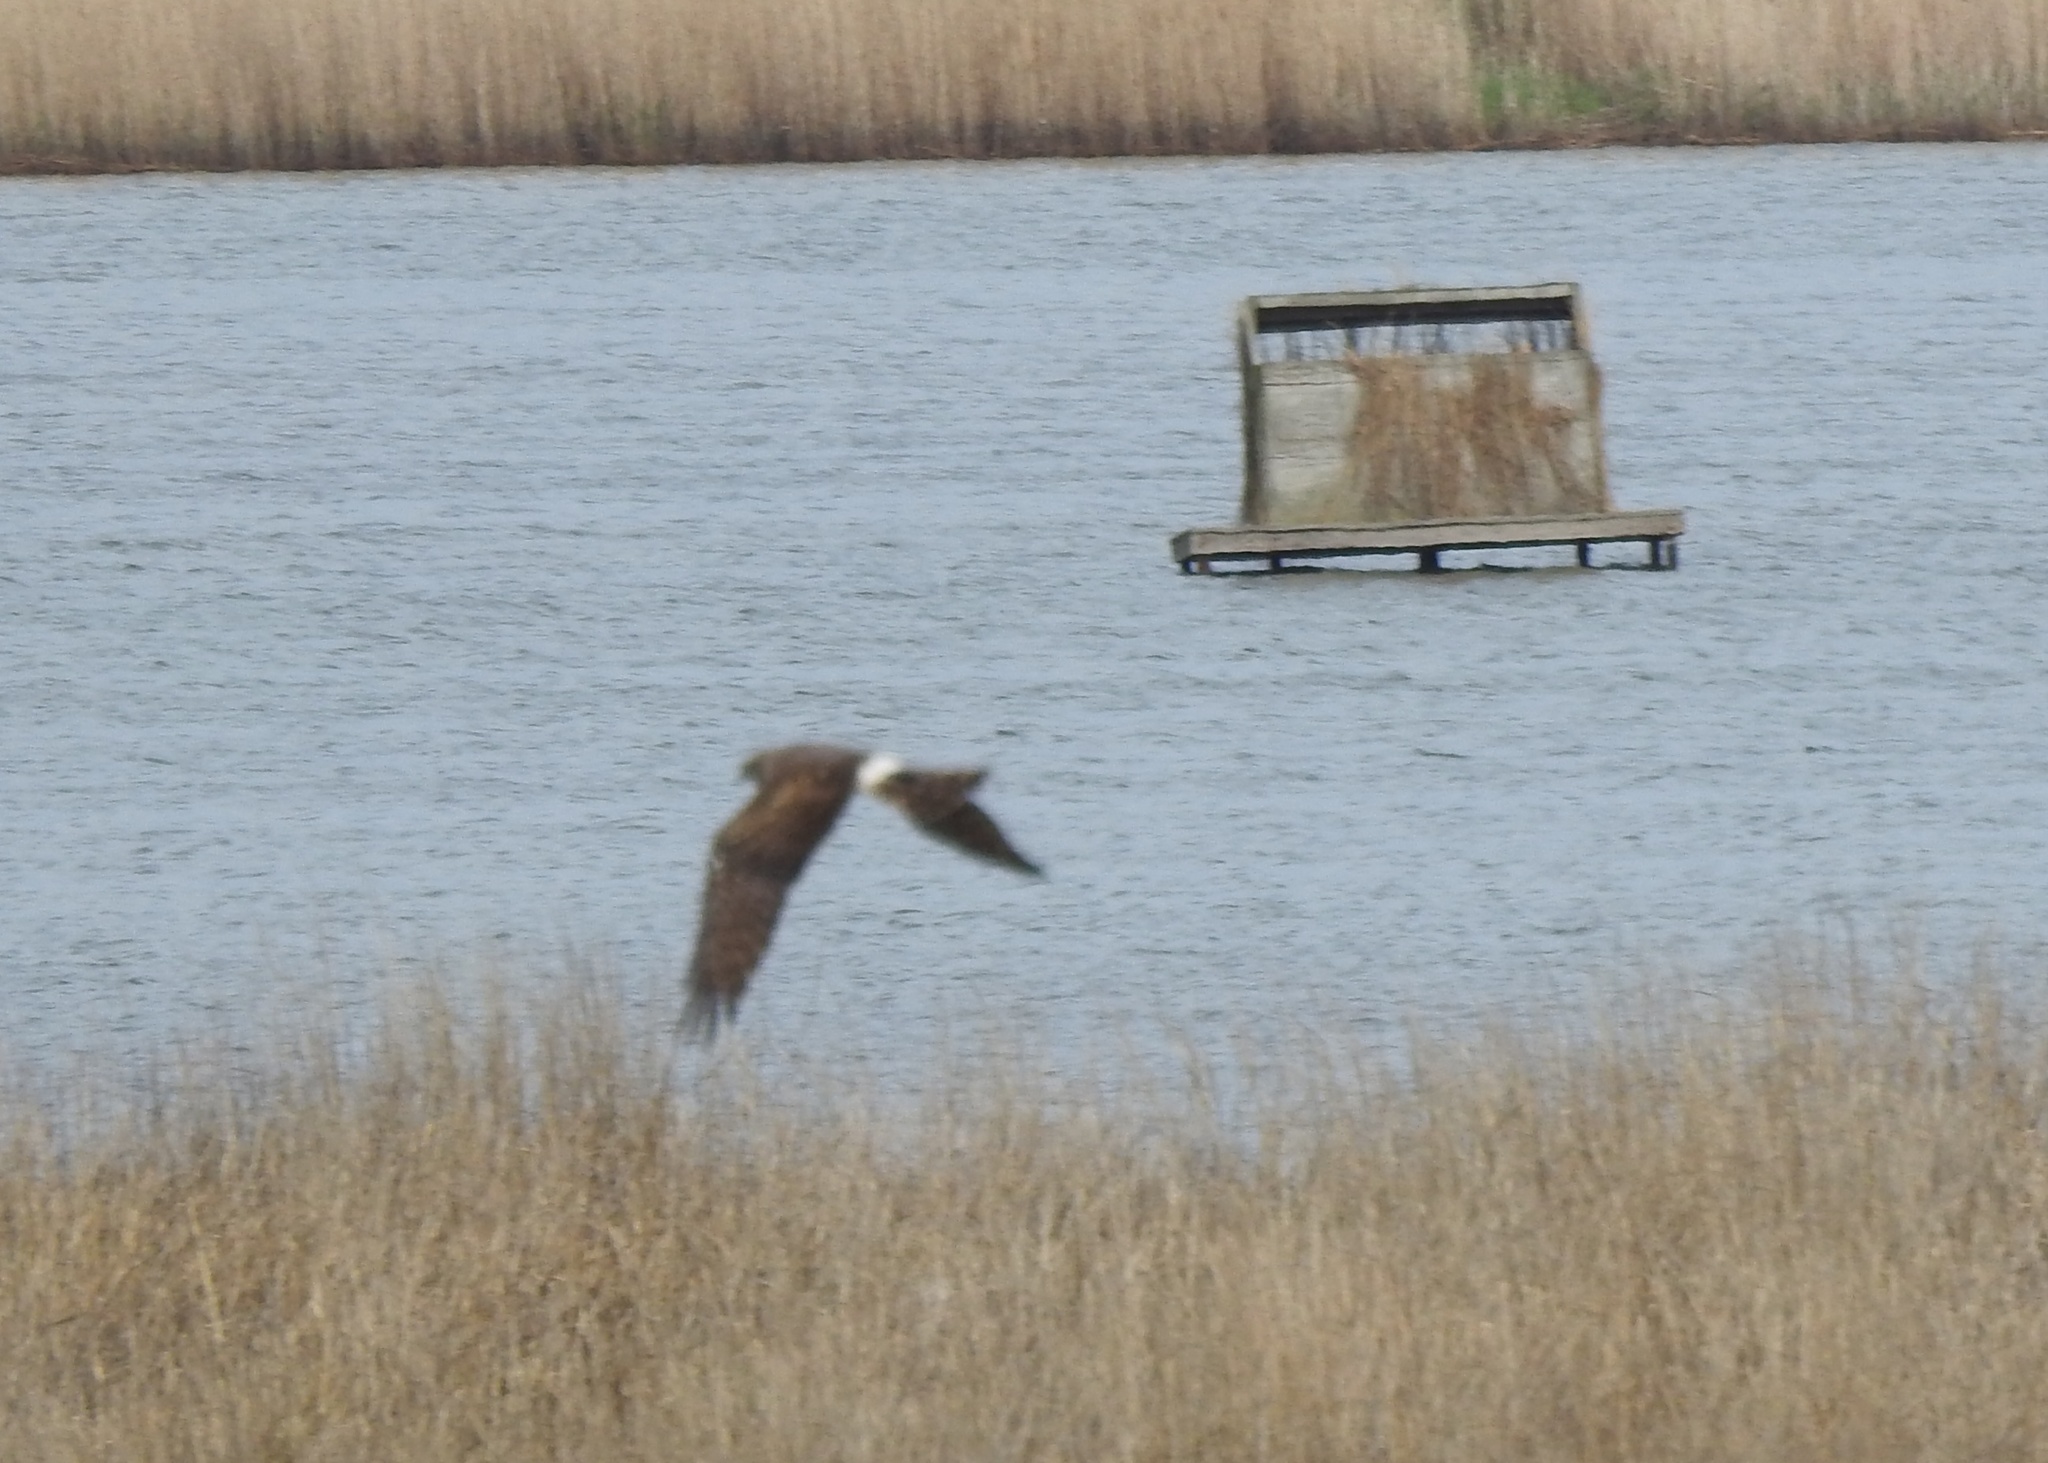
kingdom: Animalia
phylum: Chordata
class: Aves
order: Accipitriformes
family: Accipitridae
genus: Circus
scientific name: Circus cyaneus
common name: Hen harrier
